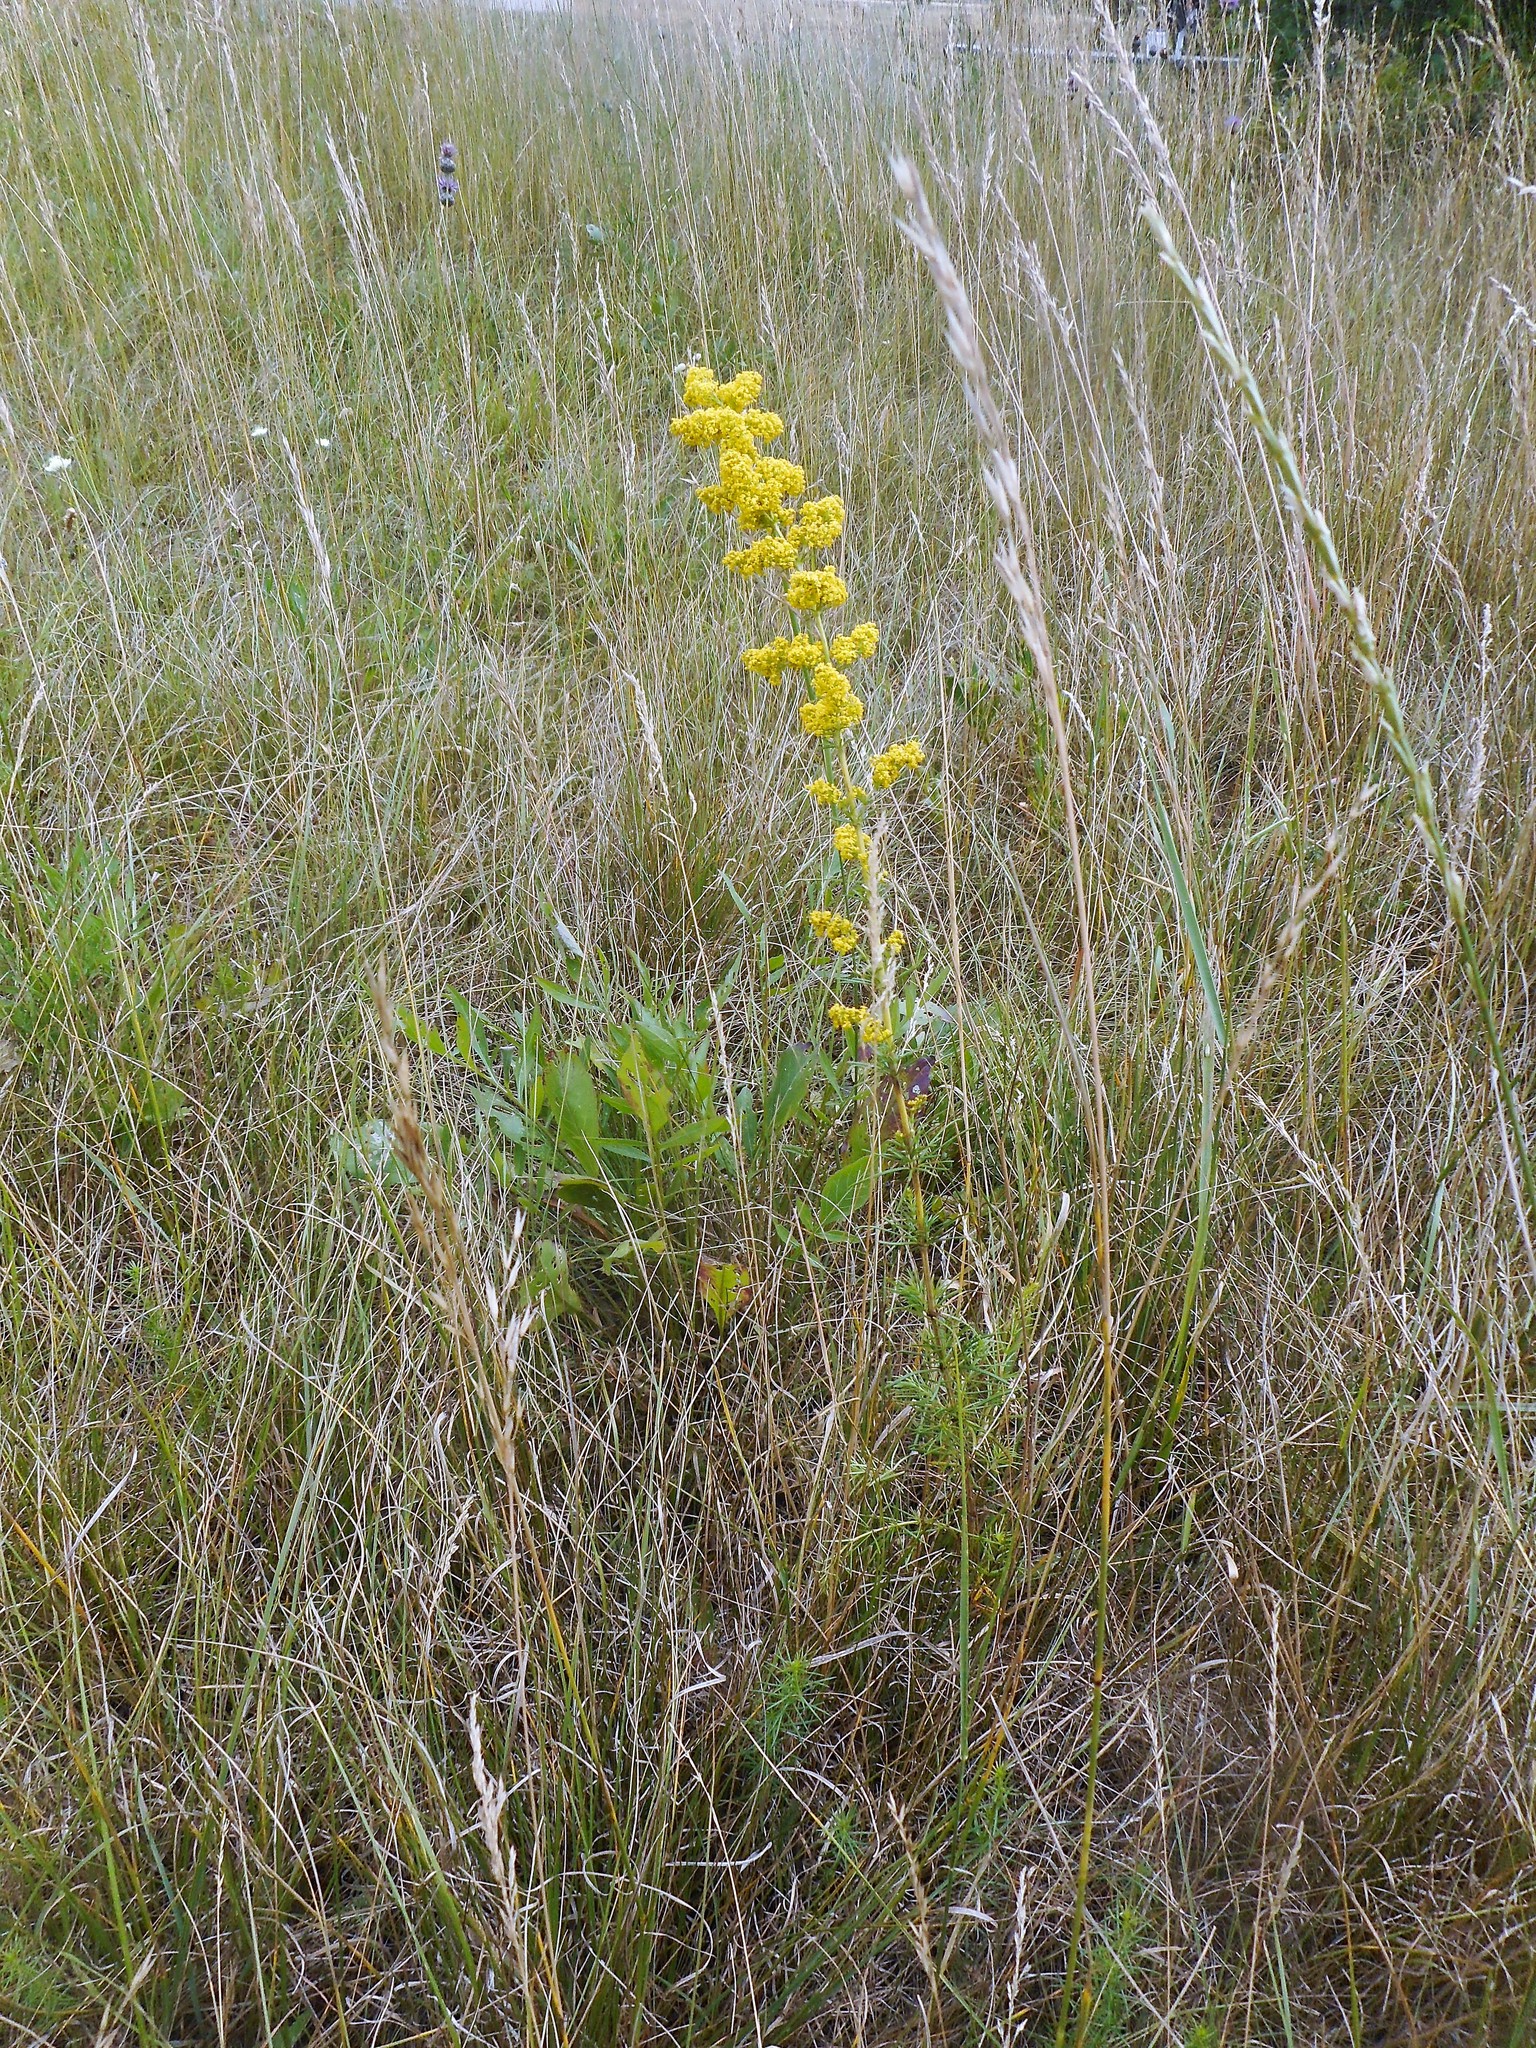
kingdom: Plantae
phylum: Tracheophyta
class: Magnoliopsida
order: Gentianales
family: Rubiaceae
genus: Galium
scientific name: Galium verum
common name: Lady's bedstraw
